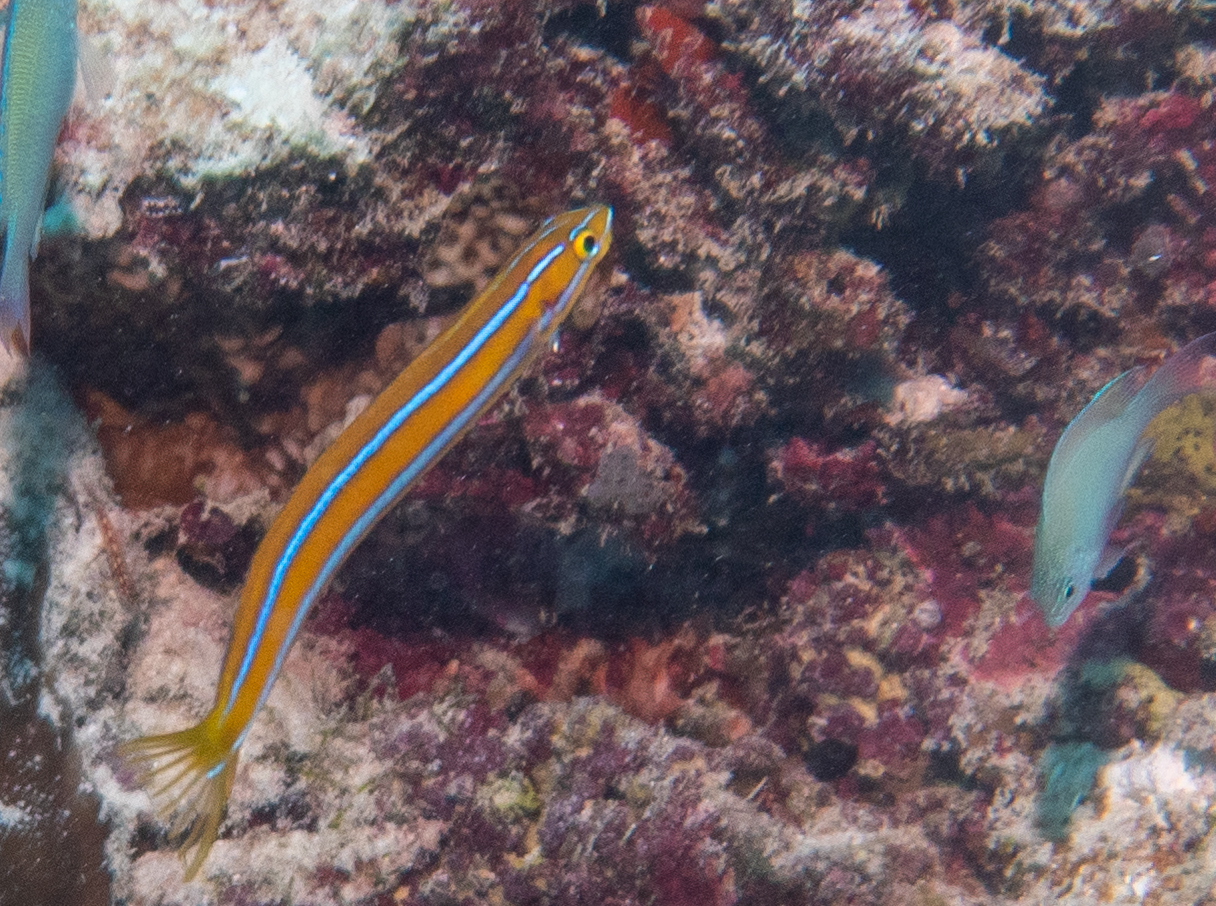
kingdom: Animalia
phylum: Chordata
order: Perciformes
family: Blenniidae
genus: Plagiotremus
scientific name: Plagiotremus rhinorhynchos
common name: Bluestriped fangblenny
